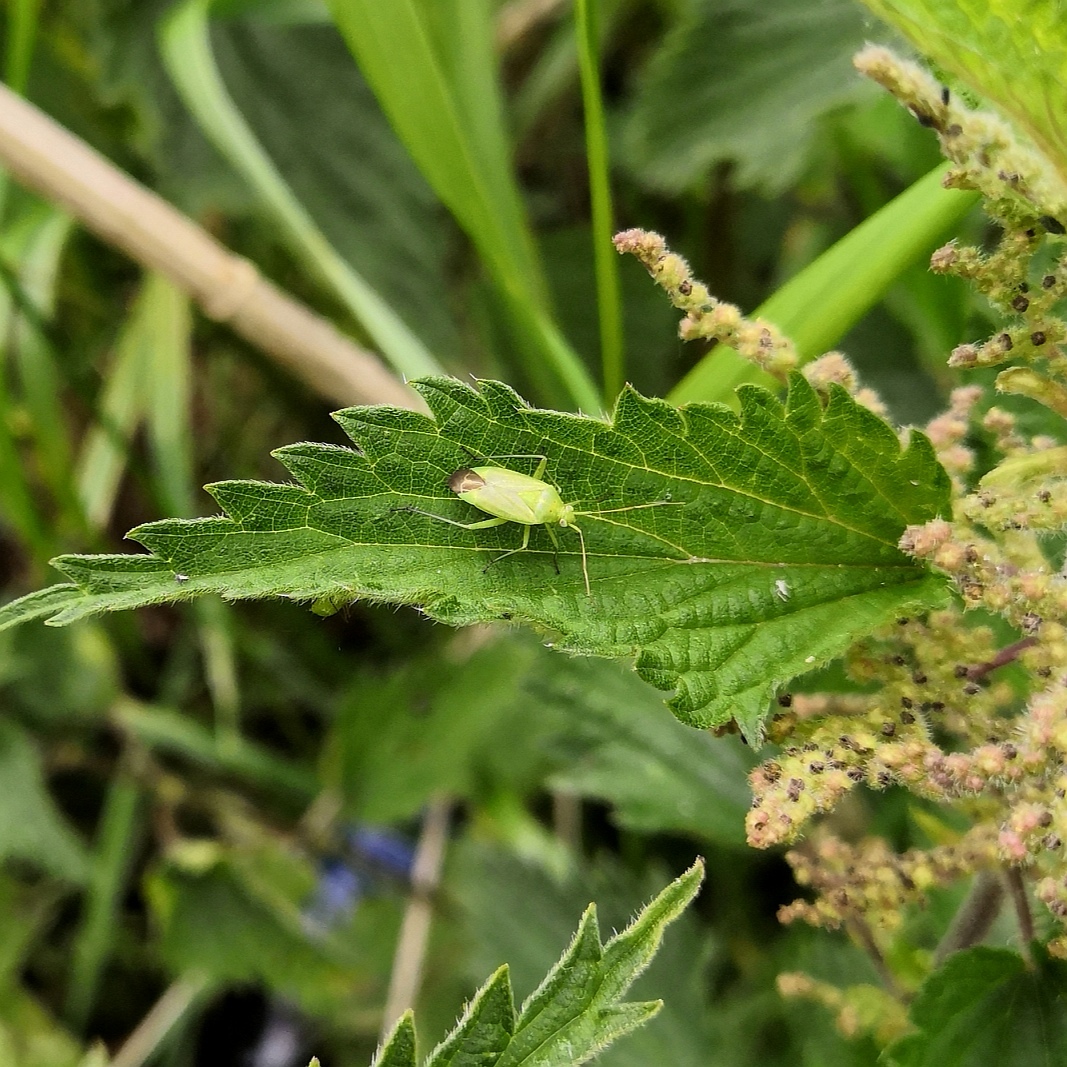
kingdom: Animalia
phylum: Arthropoda
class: Insecta
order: Hemiptera
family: Miridae
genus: Closterotomus
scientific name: Closterotomus norvegicus
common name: Plant bug
